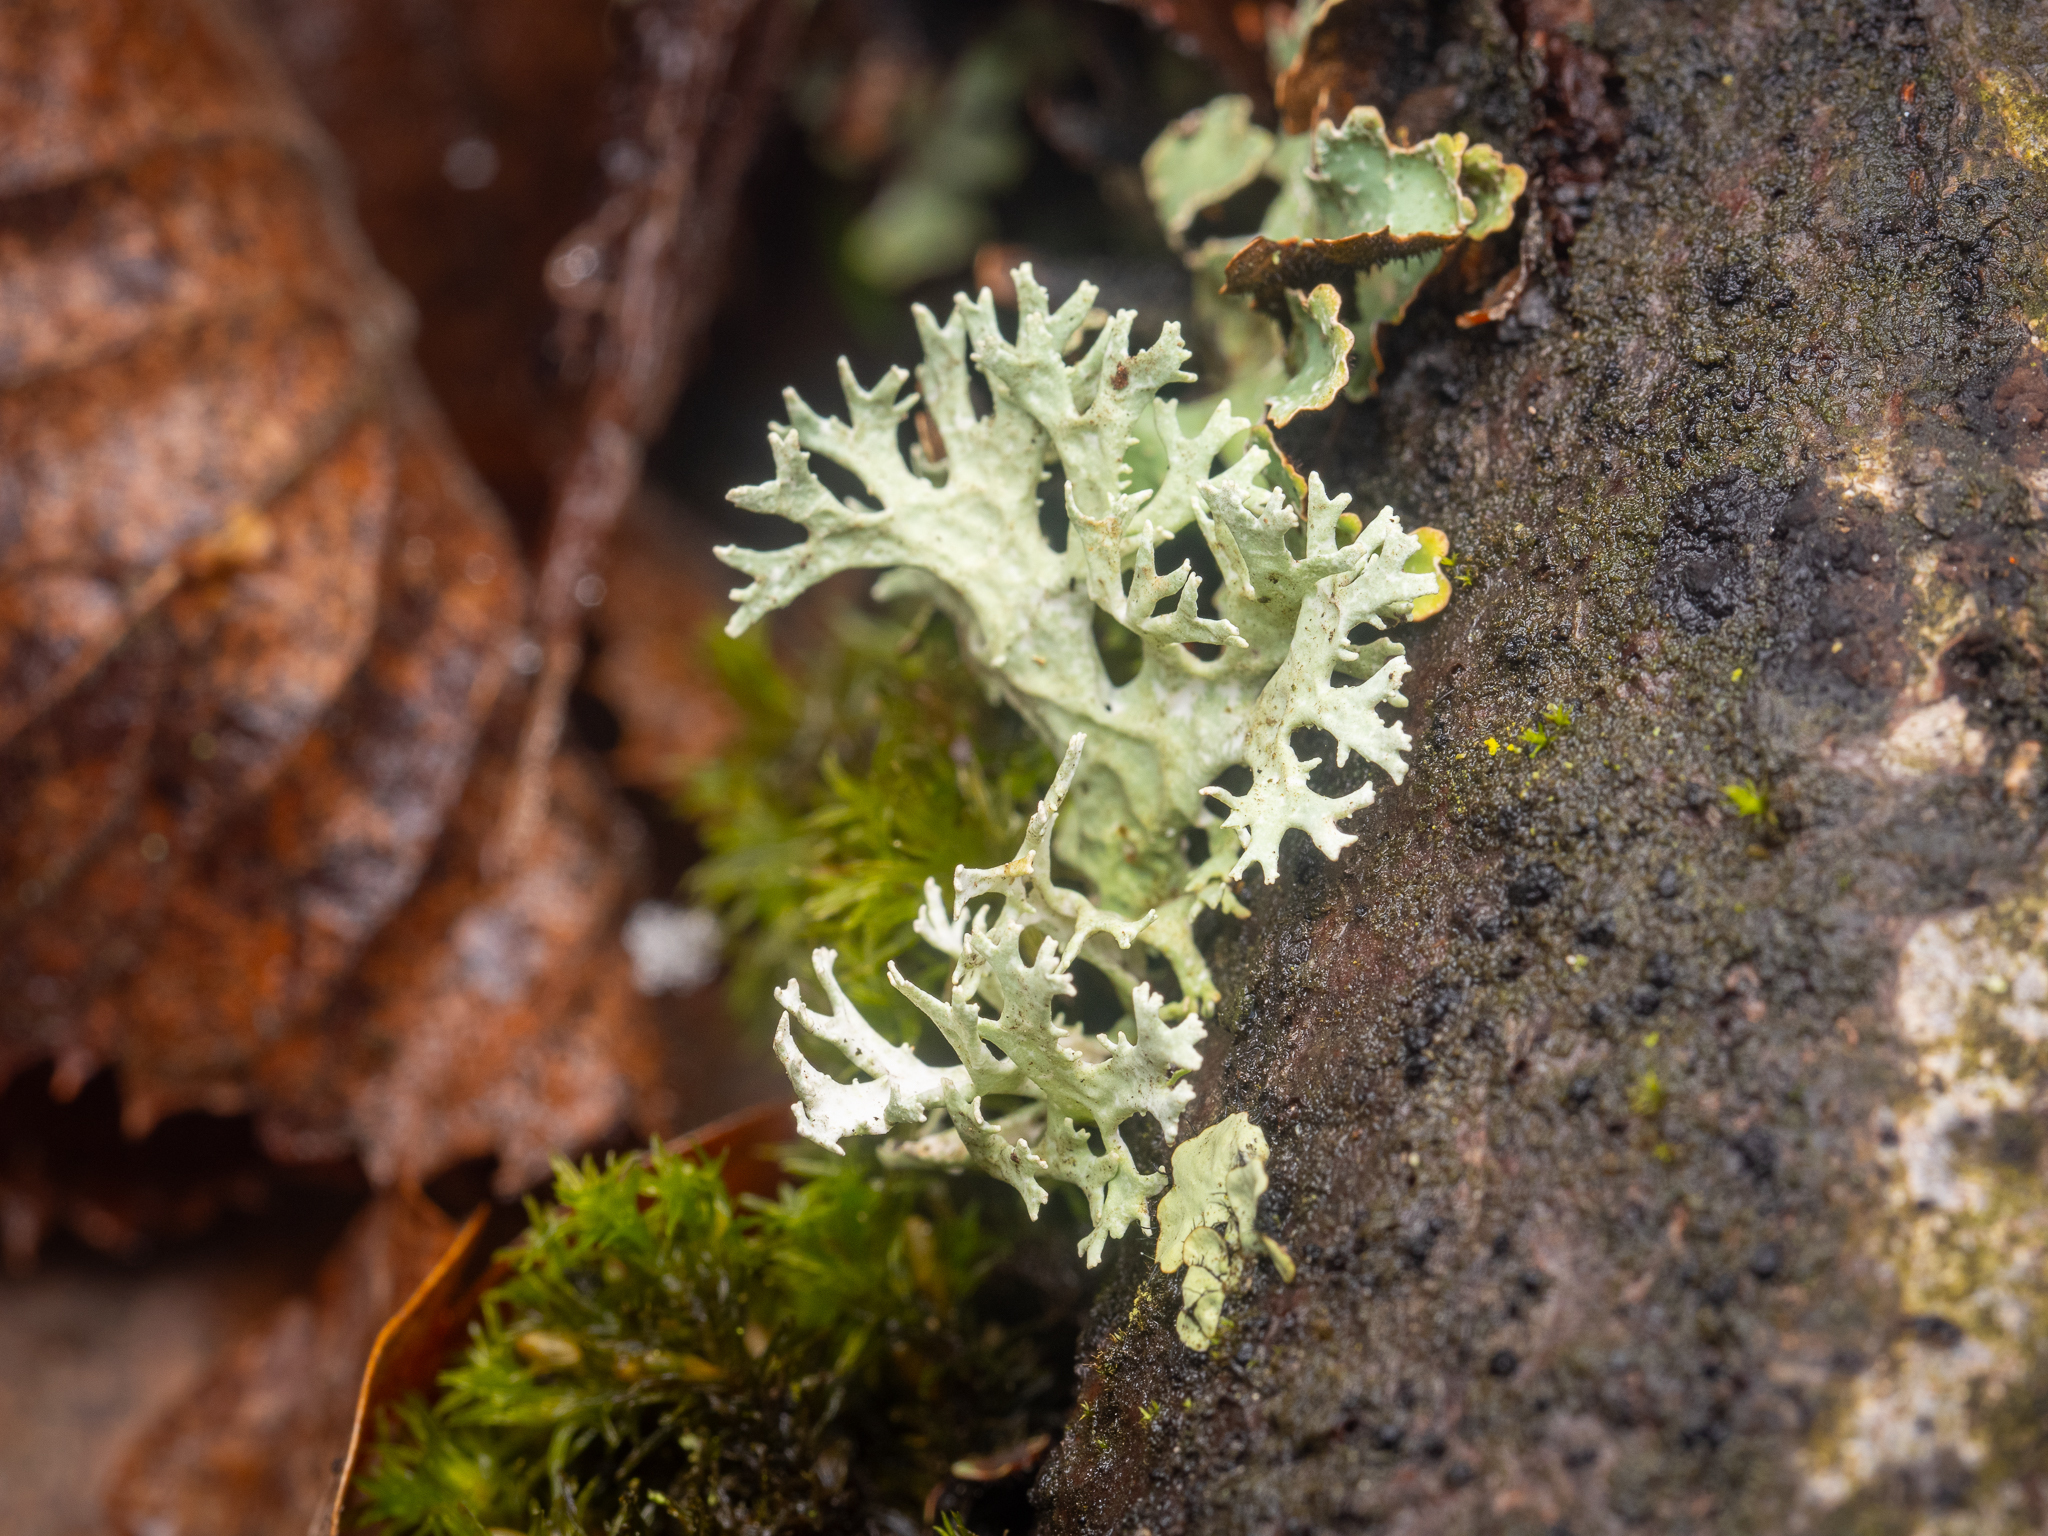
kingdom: Fungi
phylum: Ascomycota
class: Lecanoromycetes
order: Lecanorales
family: Parmeliaceae
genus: Evernia
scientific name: Evernia prunastri
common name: Oak moss
